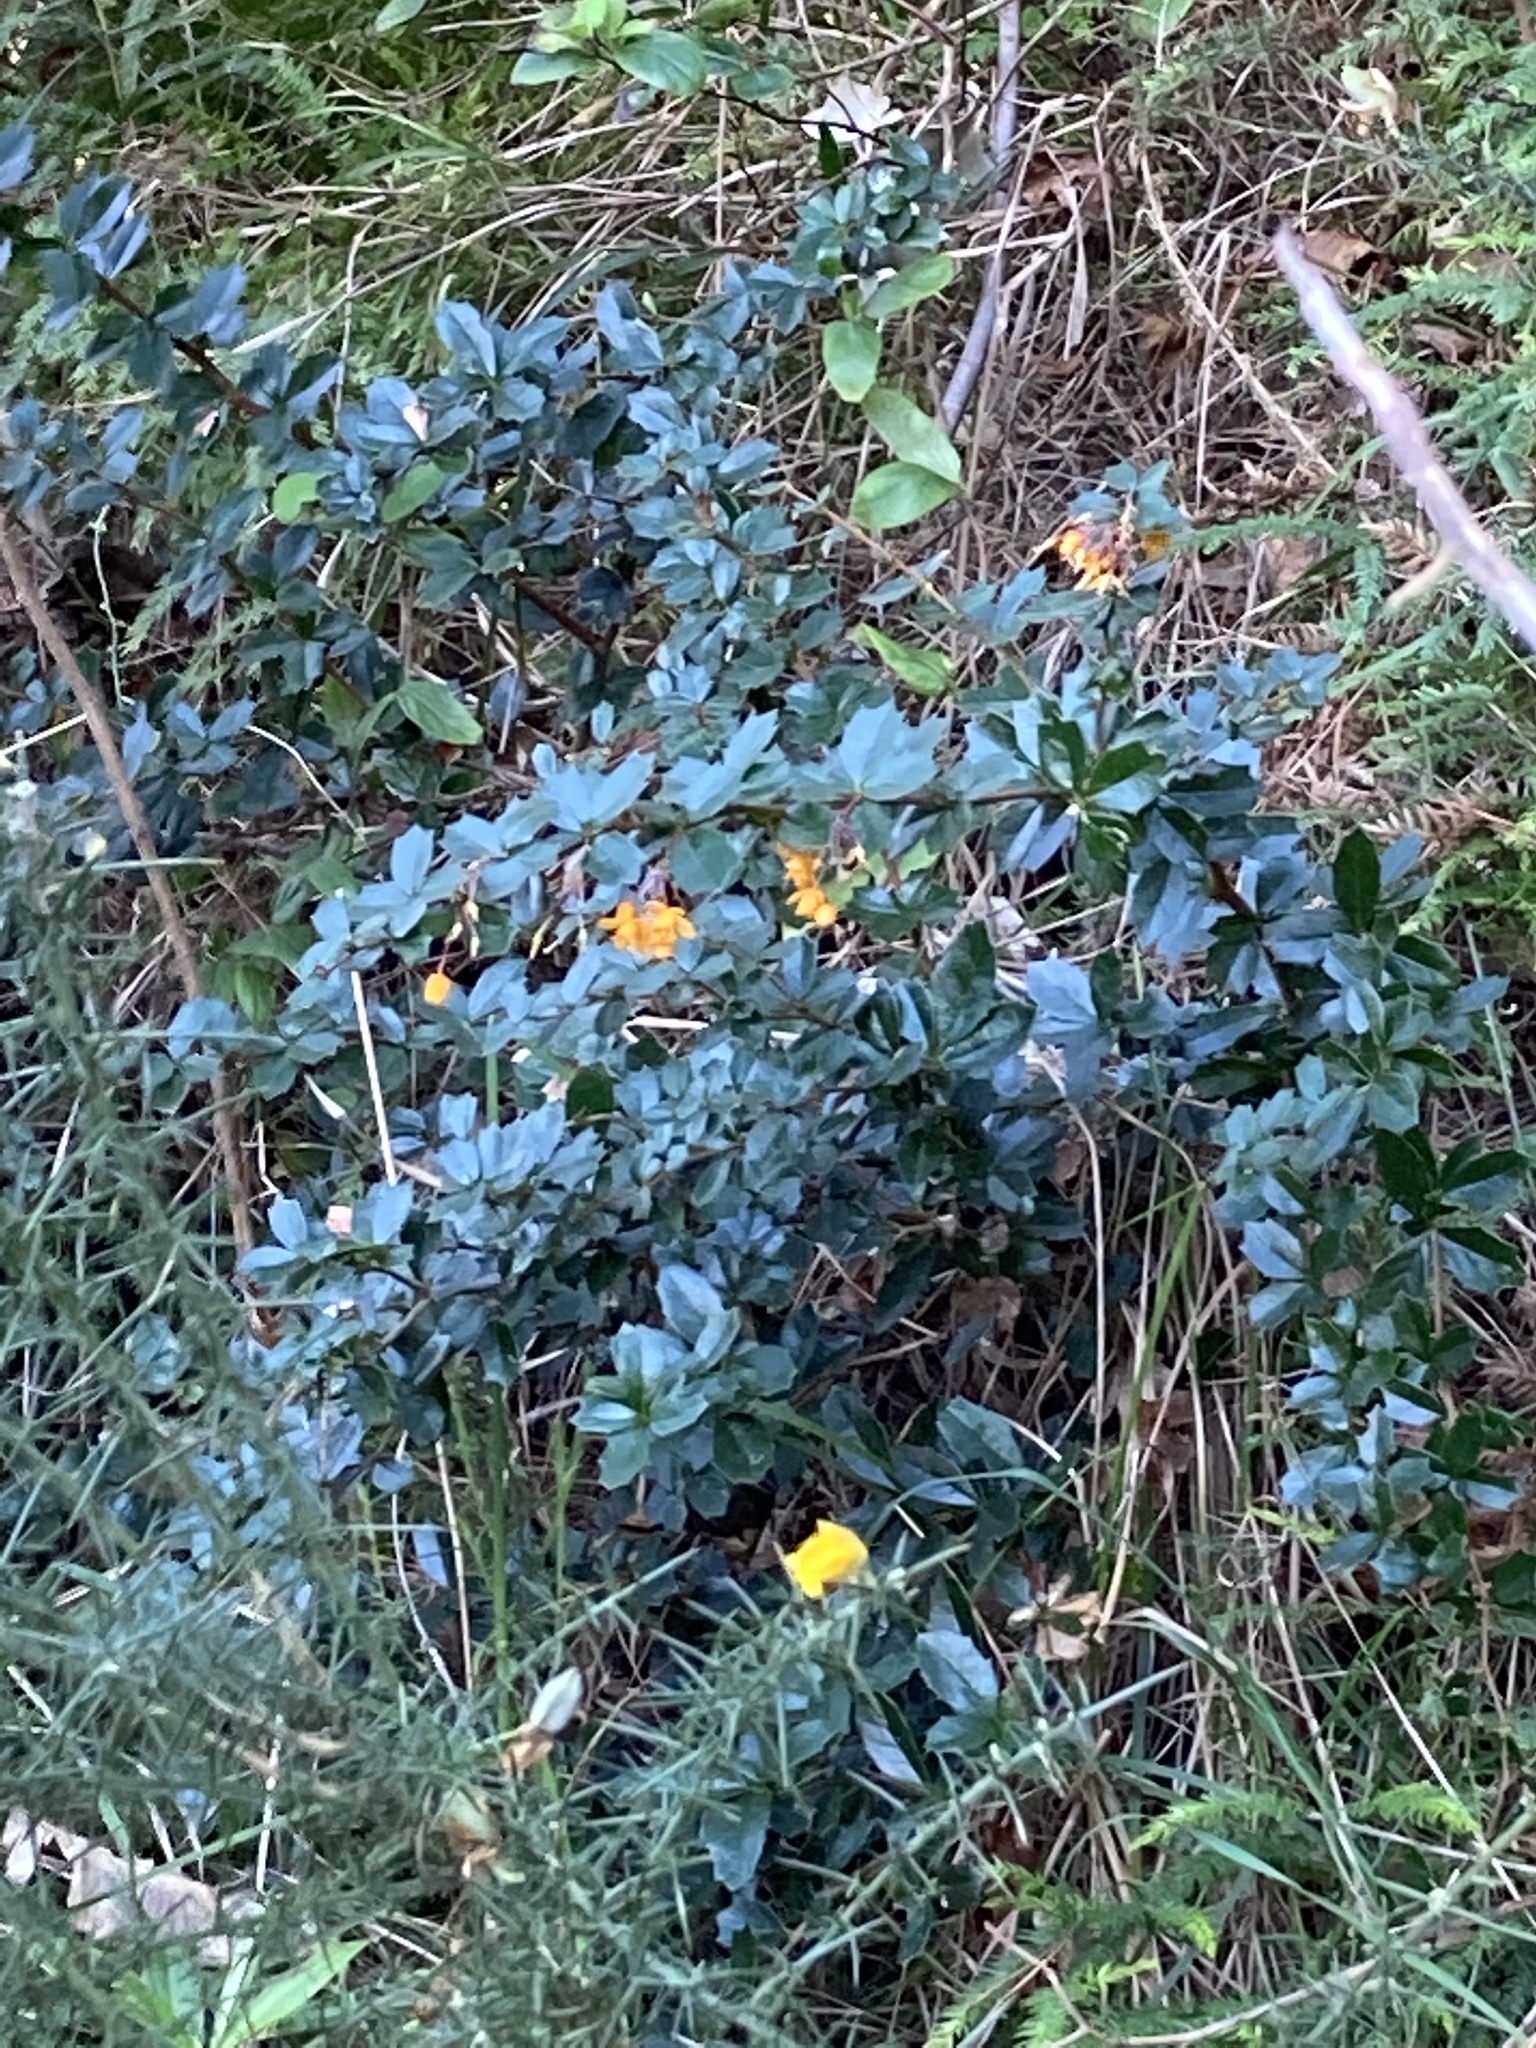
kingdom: Plantae
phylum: Tracheophyta
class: Magnoliopsida
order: Ranunculales
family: Berberidaceae
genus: Berberis
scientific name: Berberis darwinii
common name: Darwin's barberry
